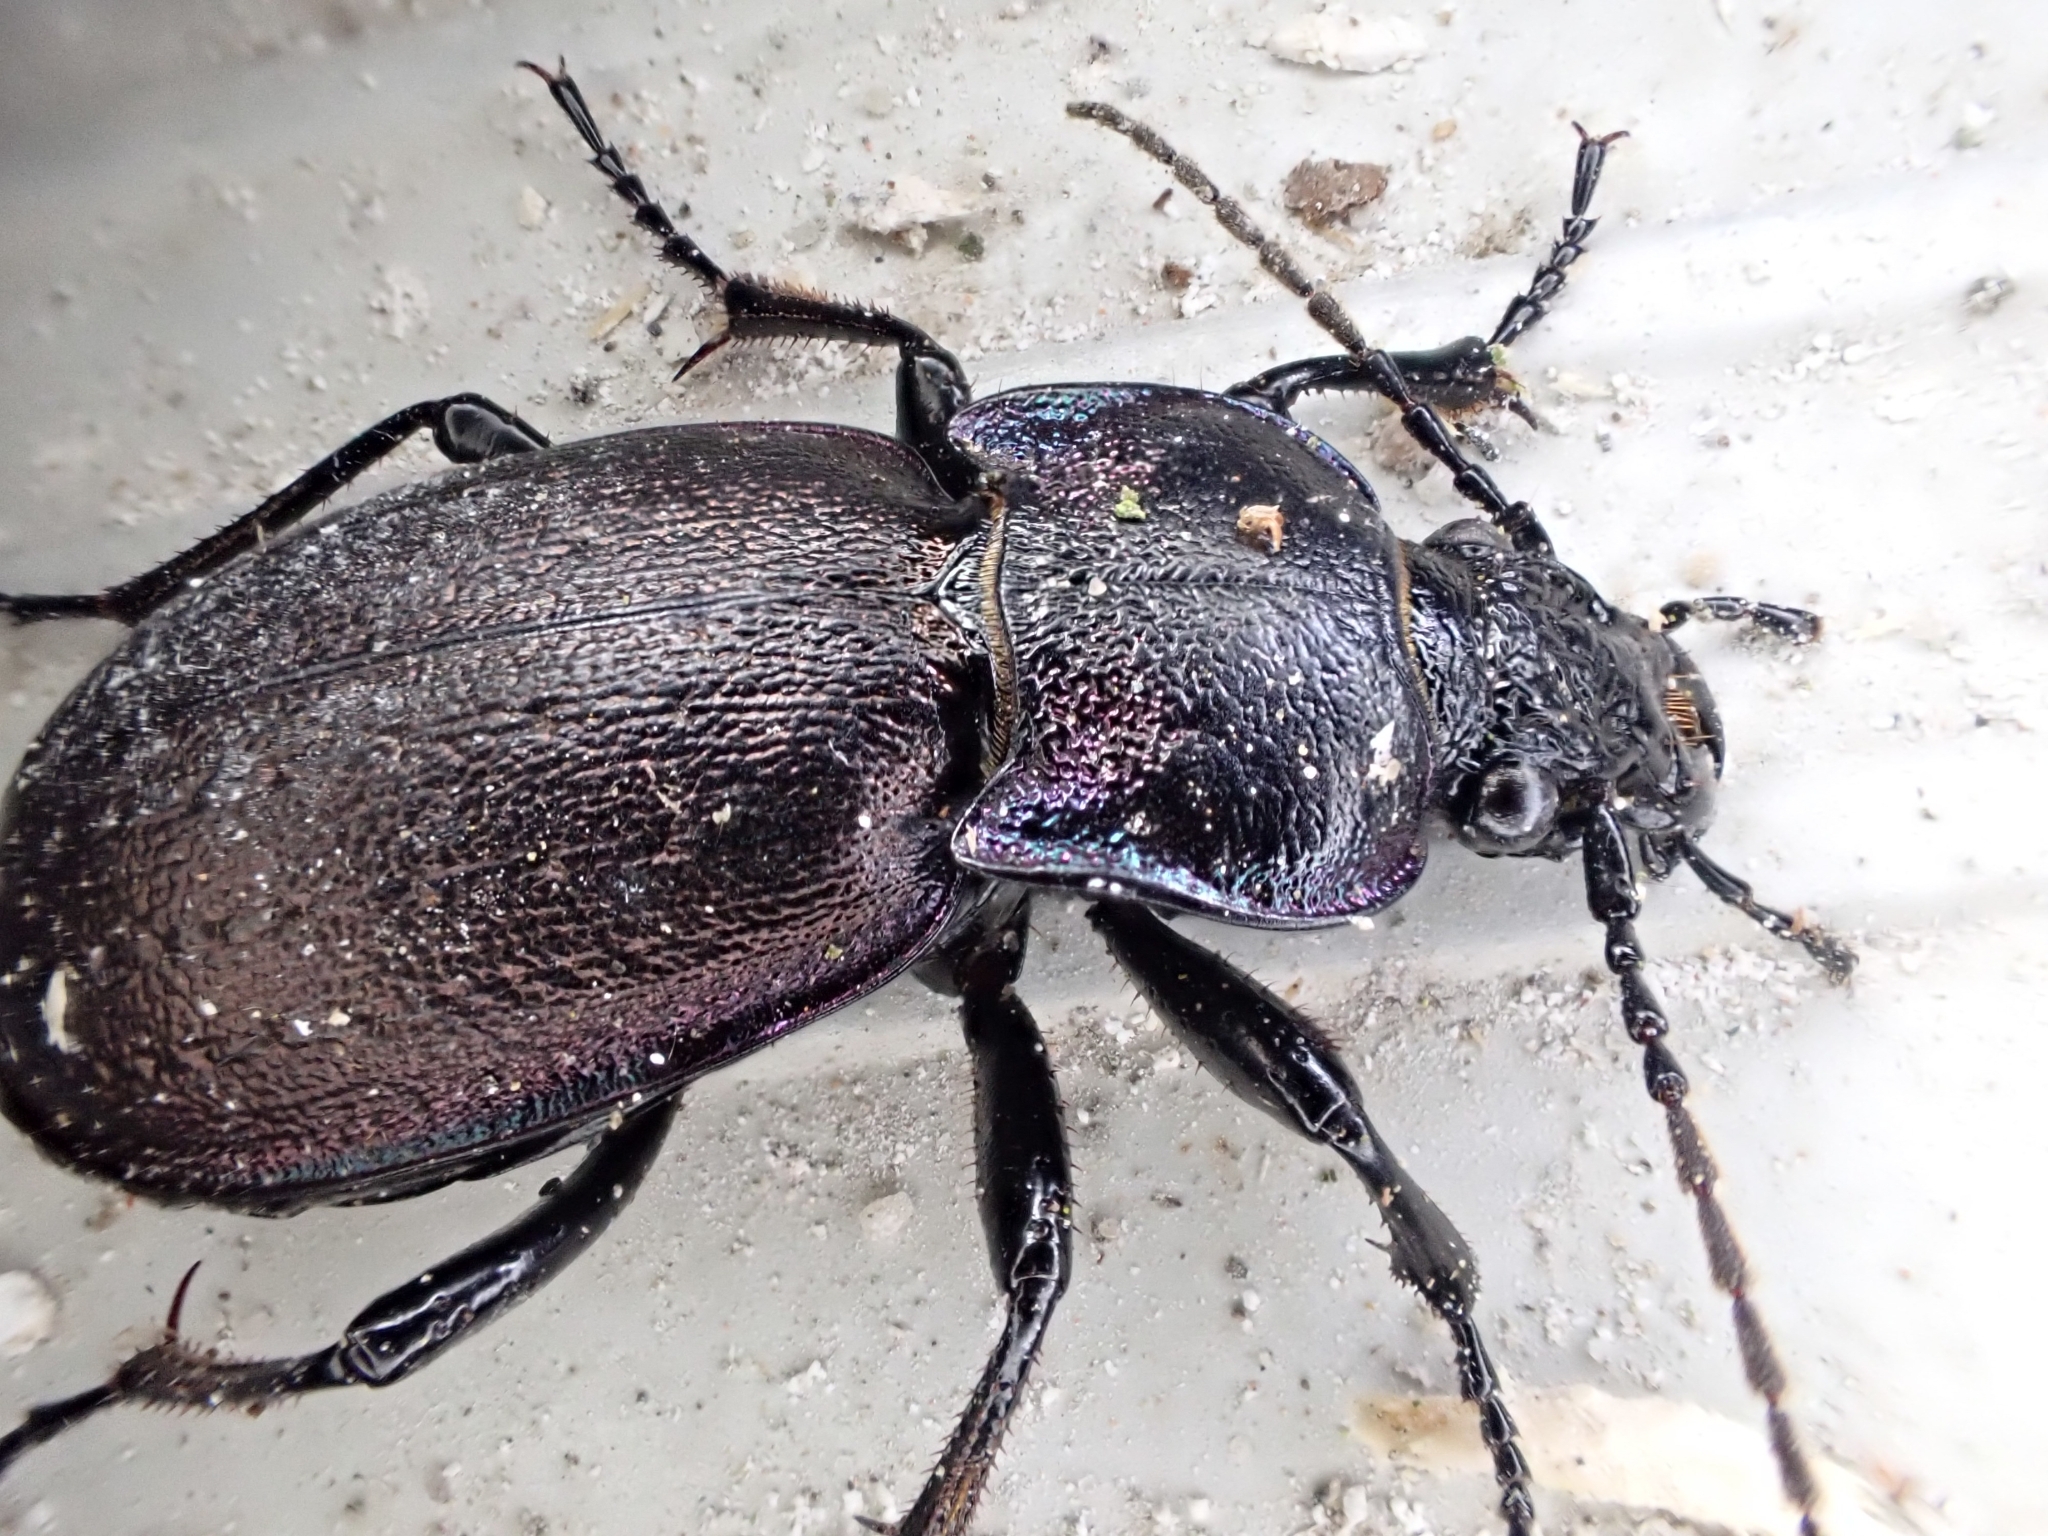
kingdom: Animalia
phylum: Arthropoda
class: Insecta
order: Coleoptera
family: Carabidae
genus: Carabus
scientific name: Carabus nemoralis
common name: European ground beetle
